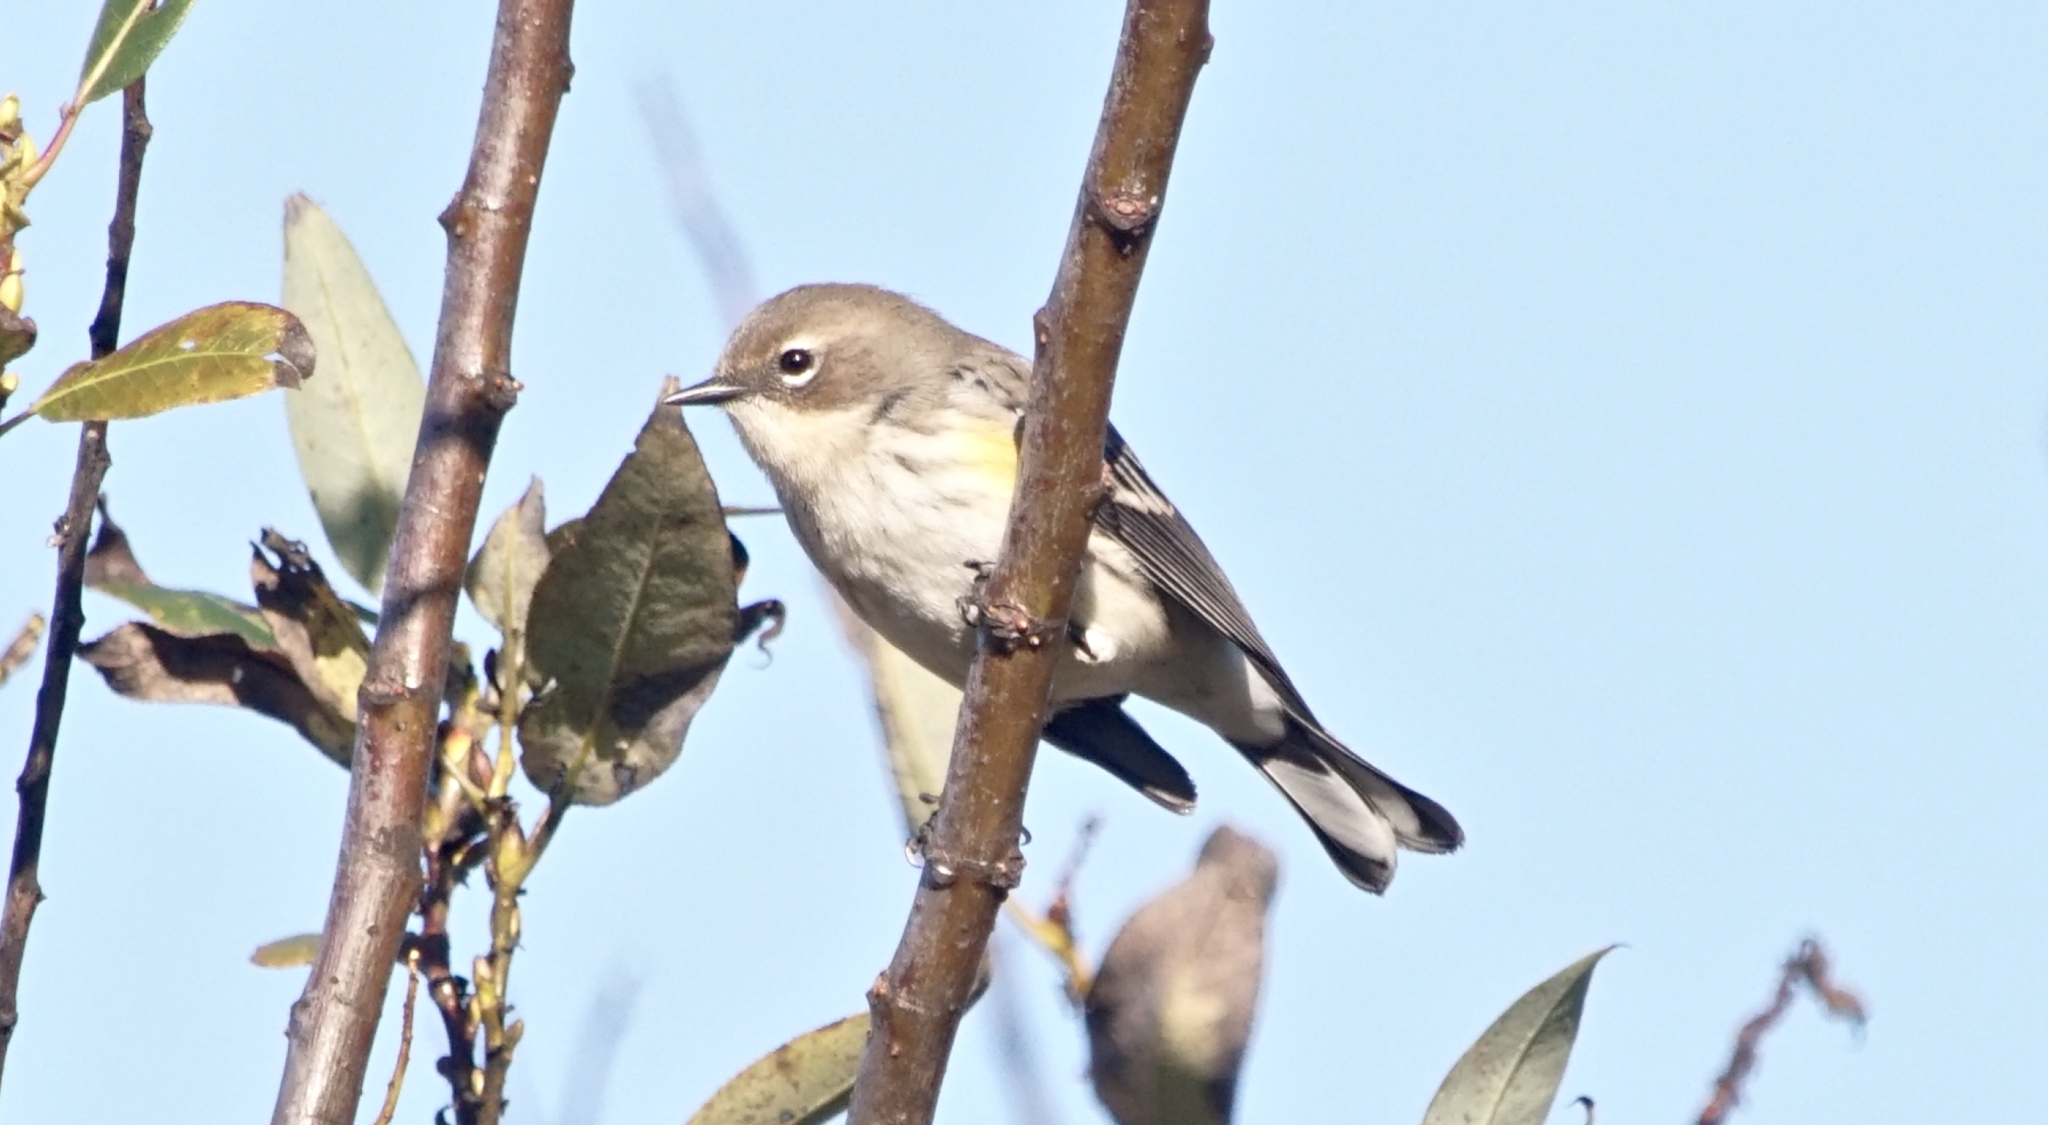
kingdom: Animalia
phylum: Chordata
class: Aves
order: Passeriformes
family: Parulidae
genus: Setophaga
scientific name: Setophaga coronata
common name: Myrtle warbler
